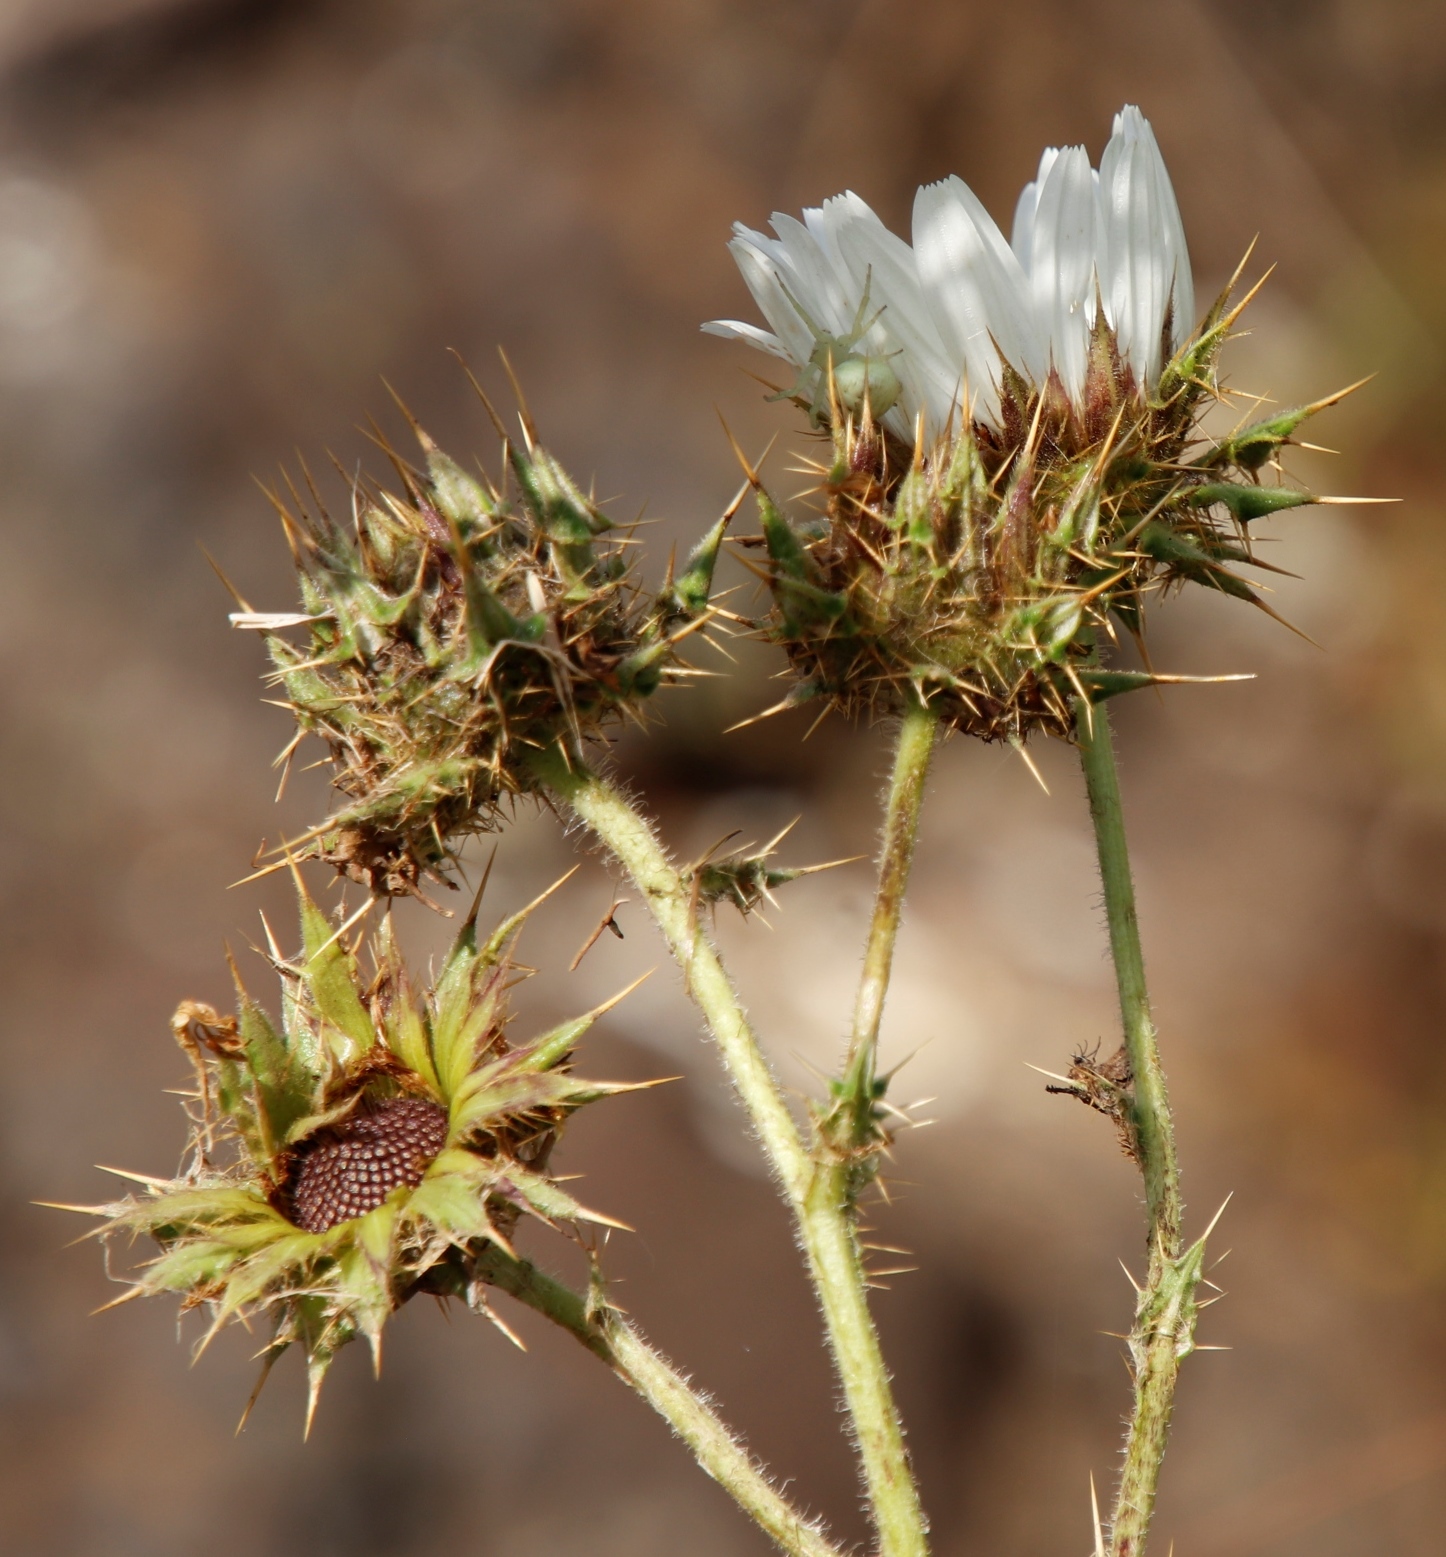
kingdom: Plantae
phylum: Tracheophyta
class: Magnoliopsida
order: Asterales
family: Asteraceae
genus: Berkheya
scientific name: Berkheya cirsiifolia
